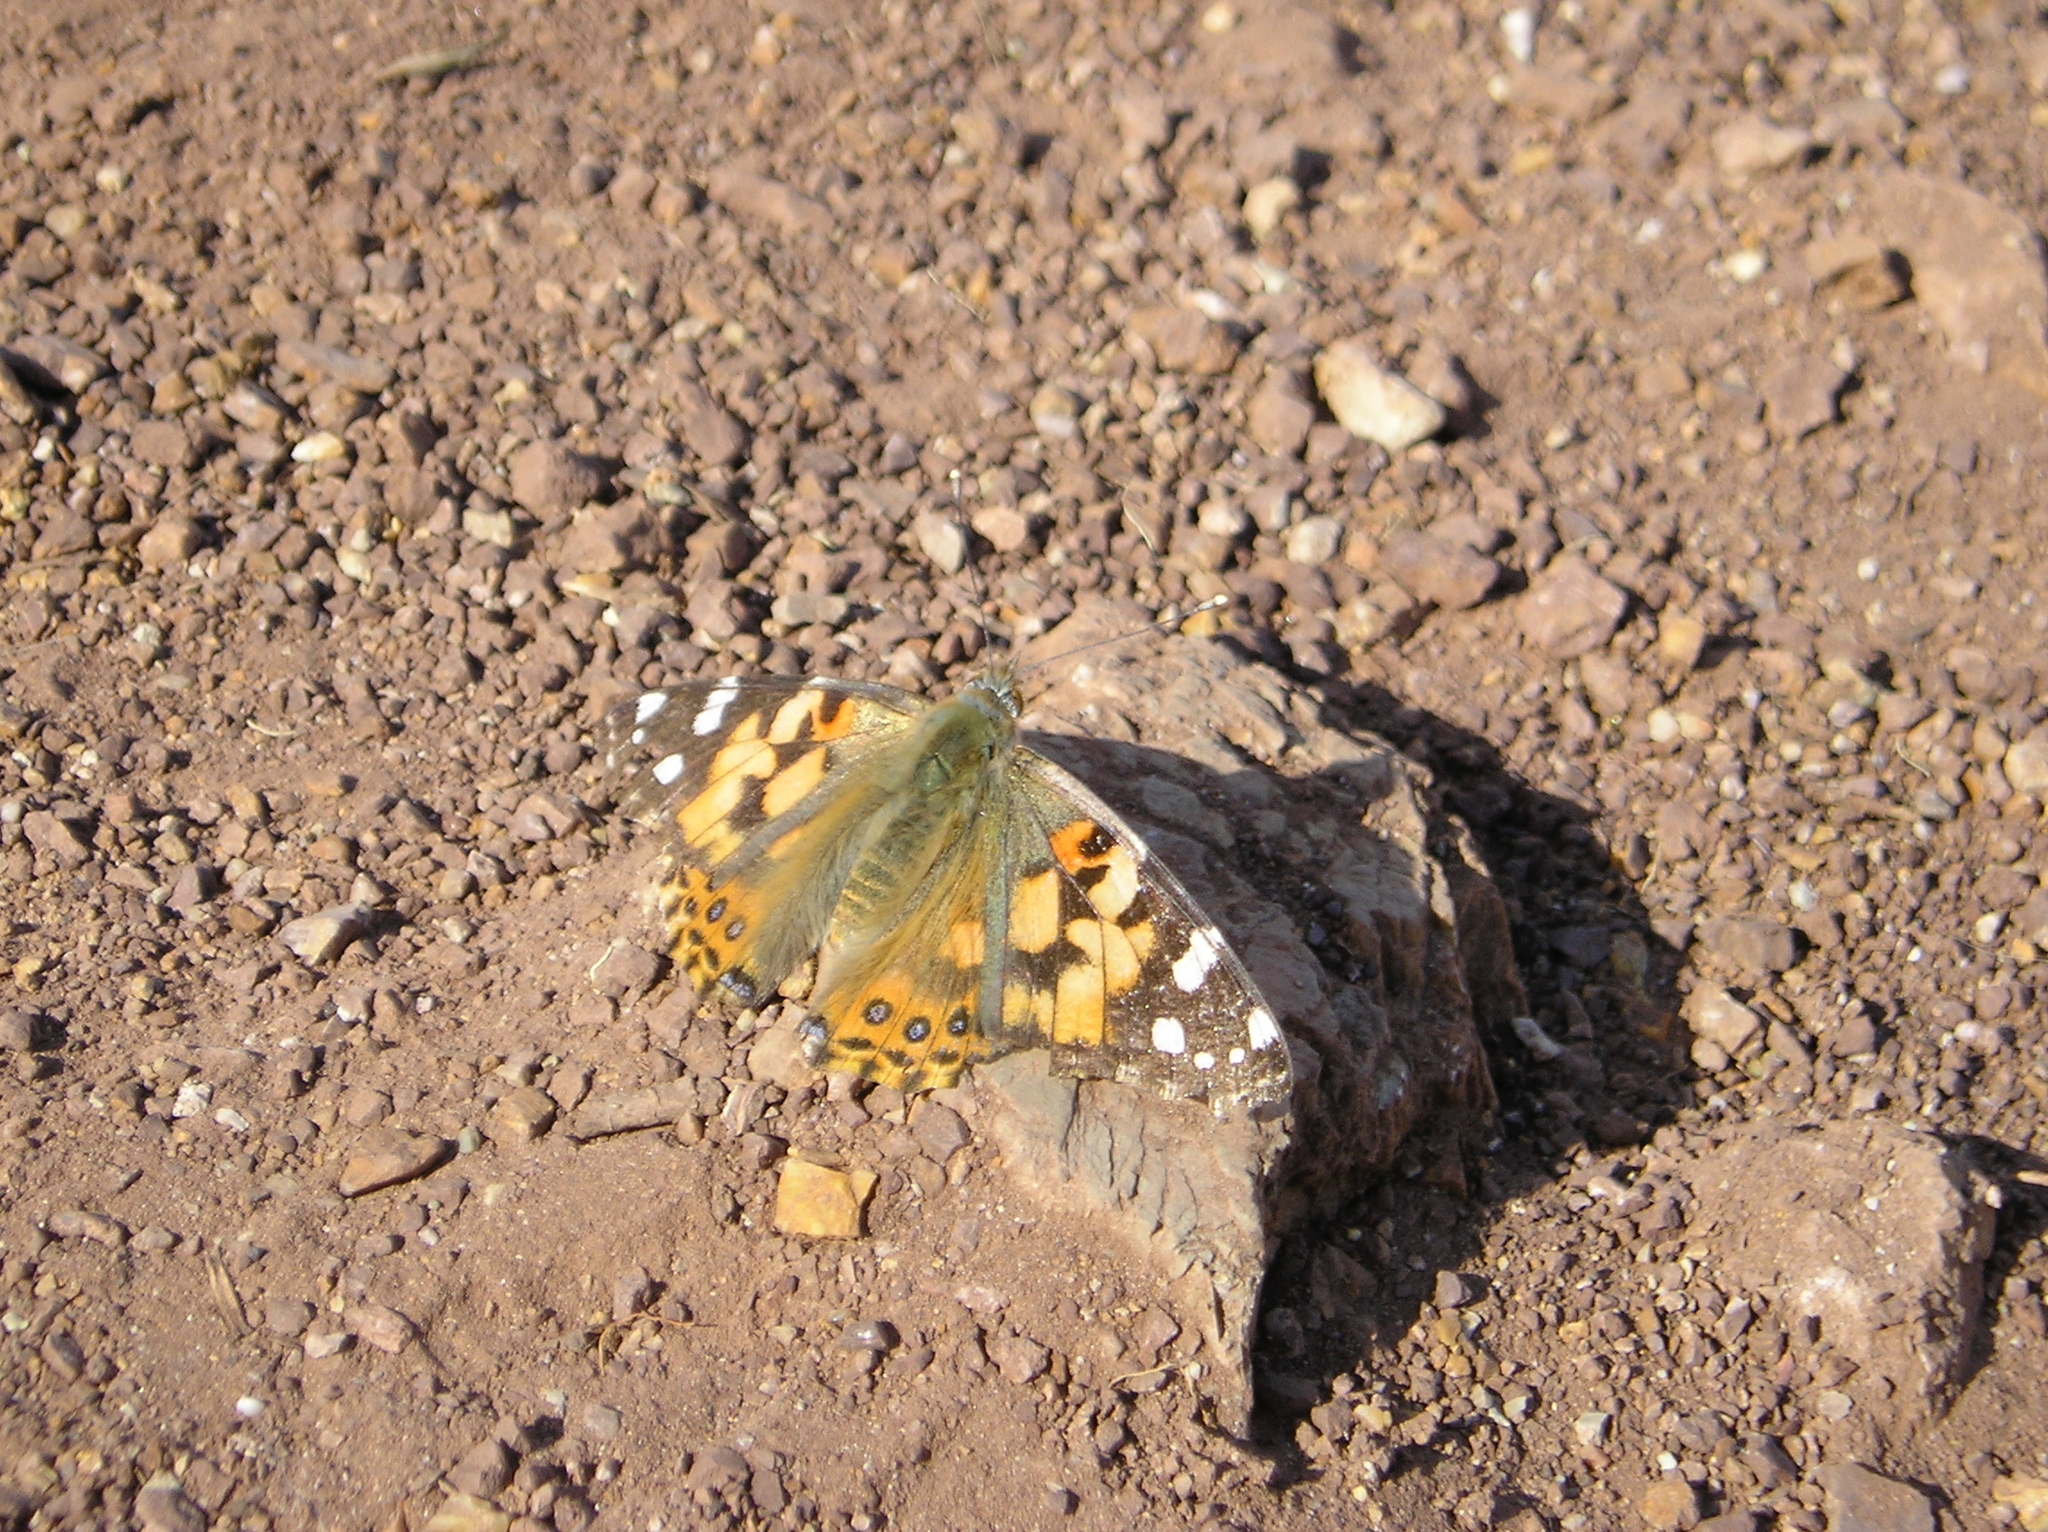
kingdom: Animalia
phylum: Arthropoda
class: Insecta
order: Lepidoptera
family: Nymphalidae
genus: Vanessa
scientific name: Vanessa cardui
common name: Painted lady
